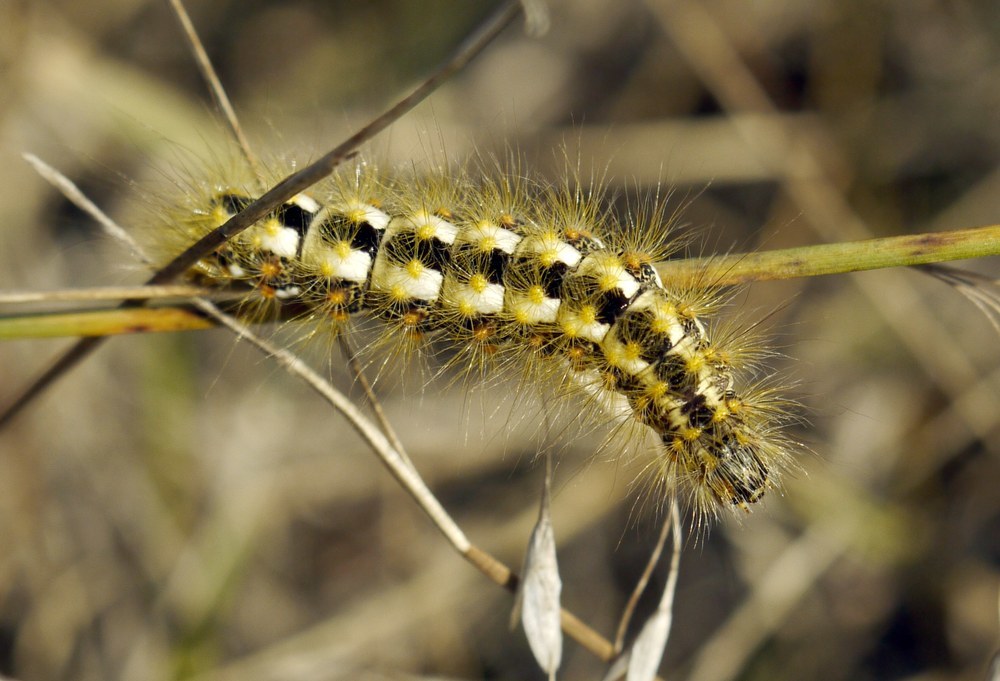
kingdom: Animalia
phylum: Arthropoda
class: Insecta
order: Lepidoptera
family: Noctuidae
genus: Acronicta
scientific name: Acronicta nervosa
